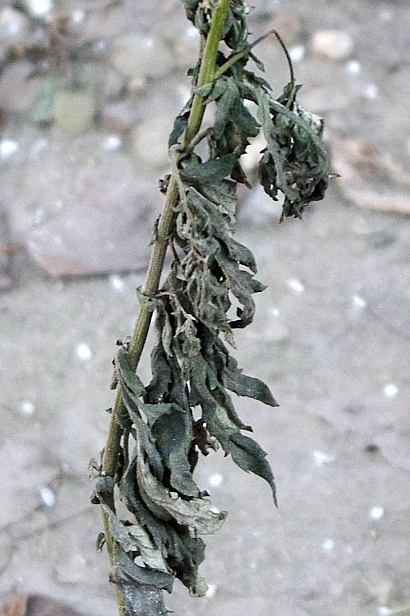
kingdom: Plantae
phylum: Tracheophyta
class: Magnoliopsida
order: Asterales
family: Asteraceae
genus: Artemisia
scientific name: Artemisia vulgaris
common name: Mugwort
